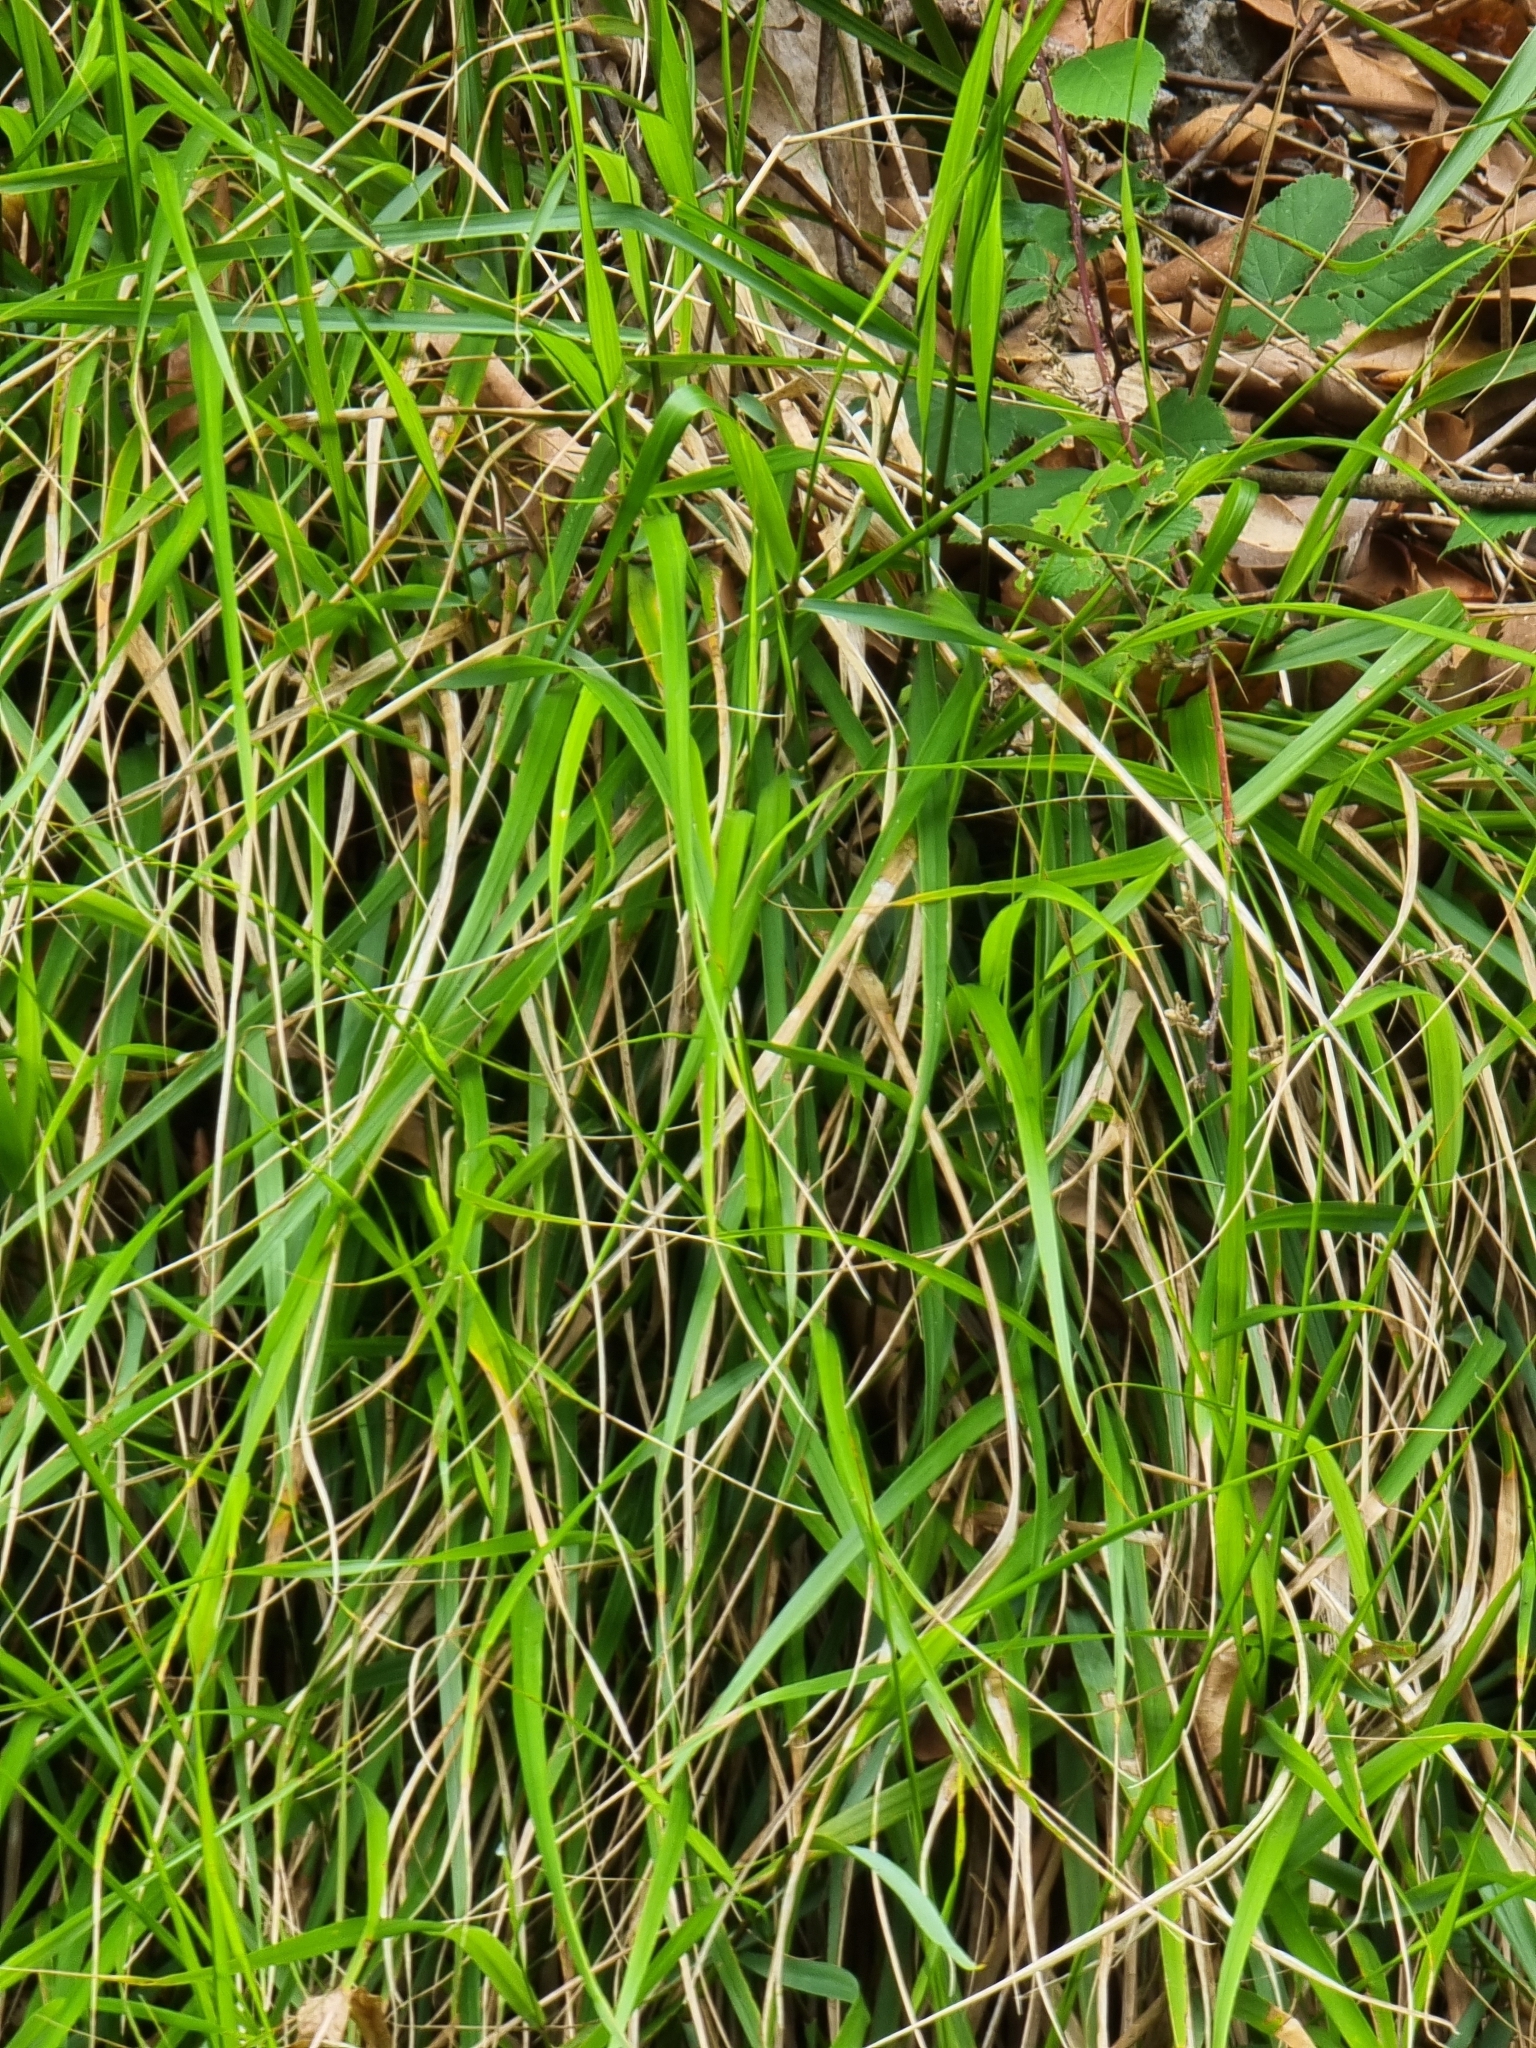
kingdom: Plantae
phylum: Tracheophyta
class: Liliopsida
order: Poales
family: Poaceae
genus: Festuca
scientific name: Festuca donax
